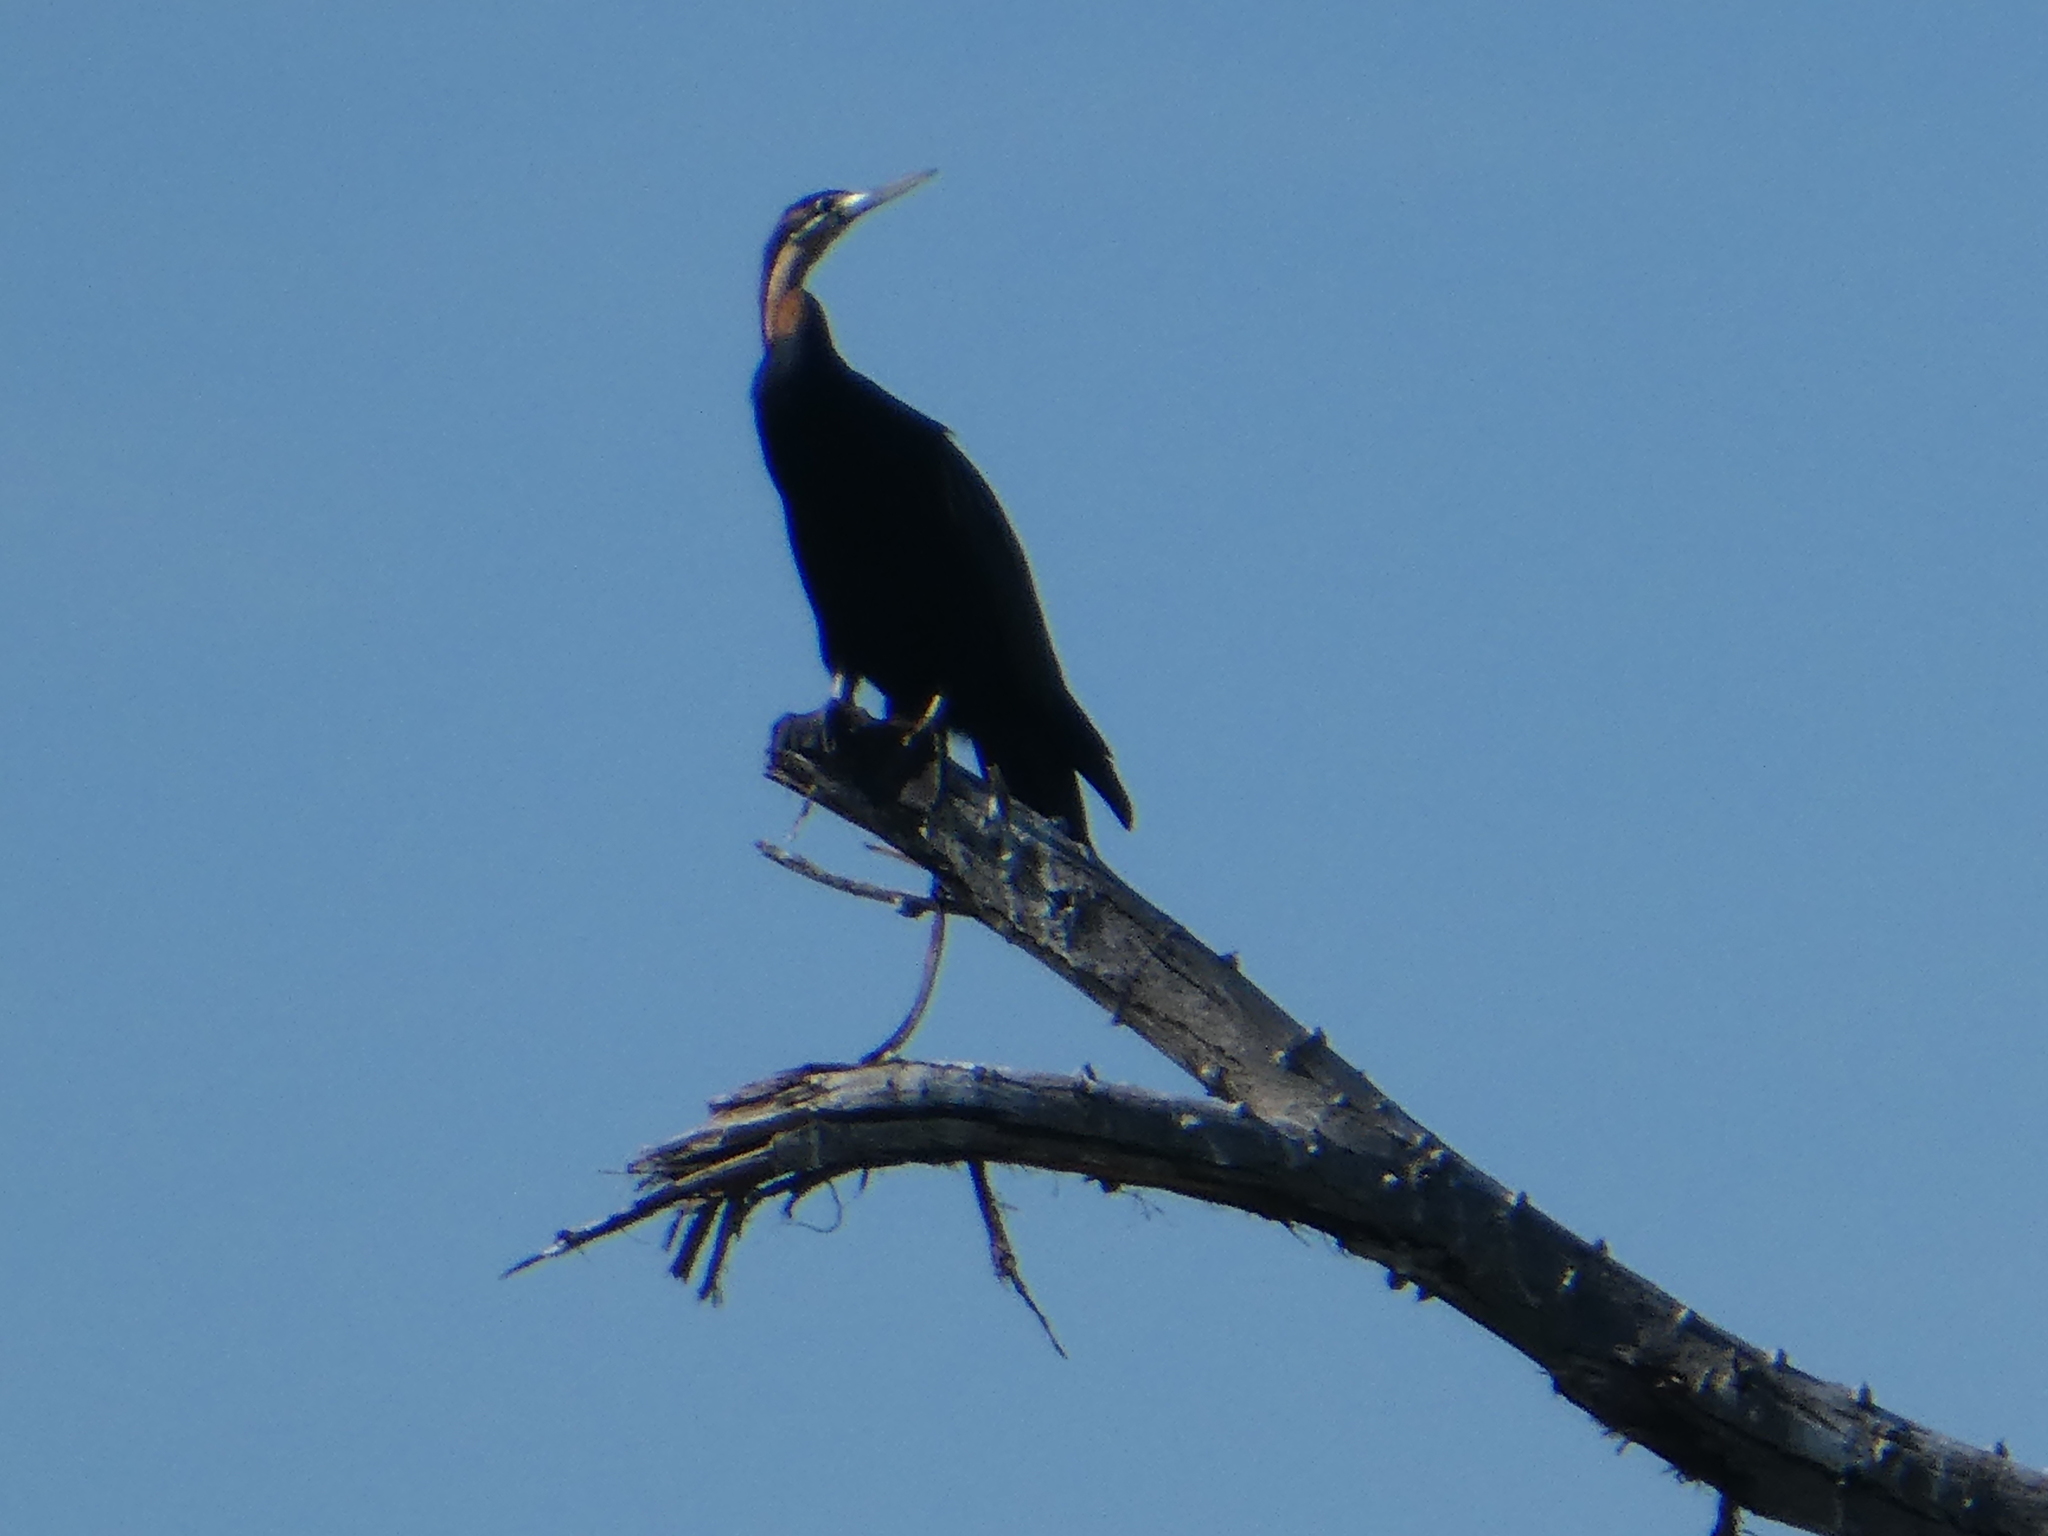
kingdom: Animalia
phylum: Chordata
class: Aves
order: Suliformes
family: Anhingidae
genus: Anhinga
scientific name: Anhinga rufa
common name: African darter
